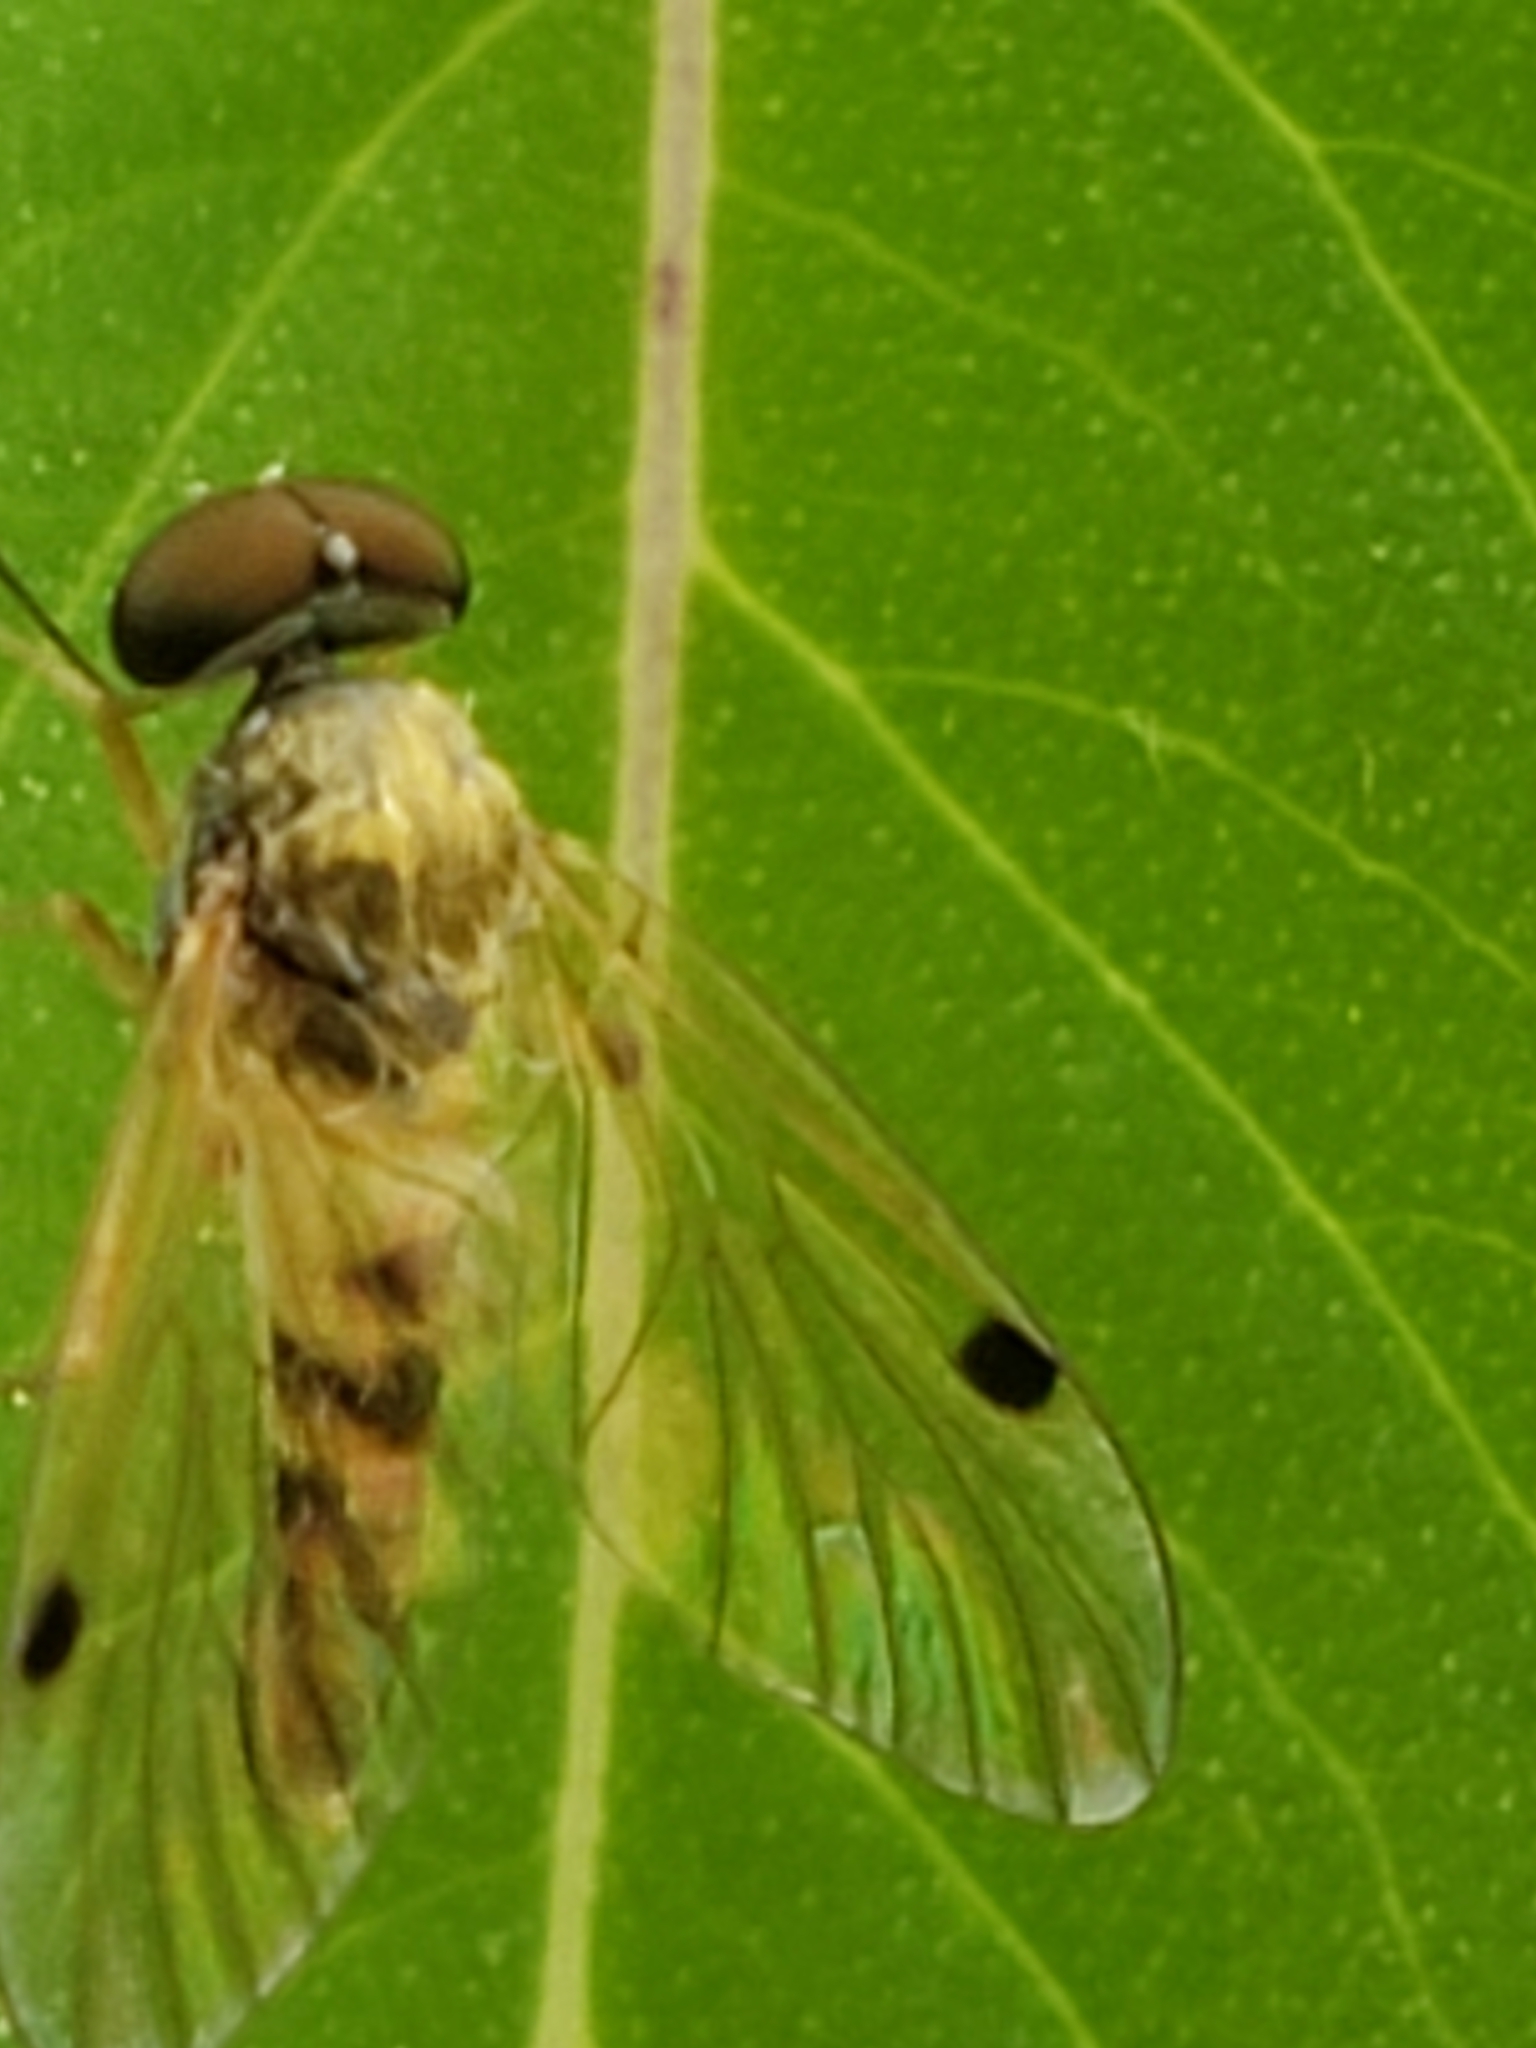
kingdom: Animalia
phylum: Arthropoda
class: Insecta
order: Diptera
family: Rhagionidae
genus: Chrysopilus
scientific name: Chrysopilus modestus
